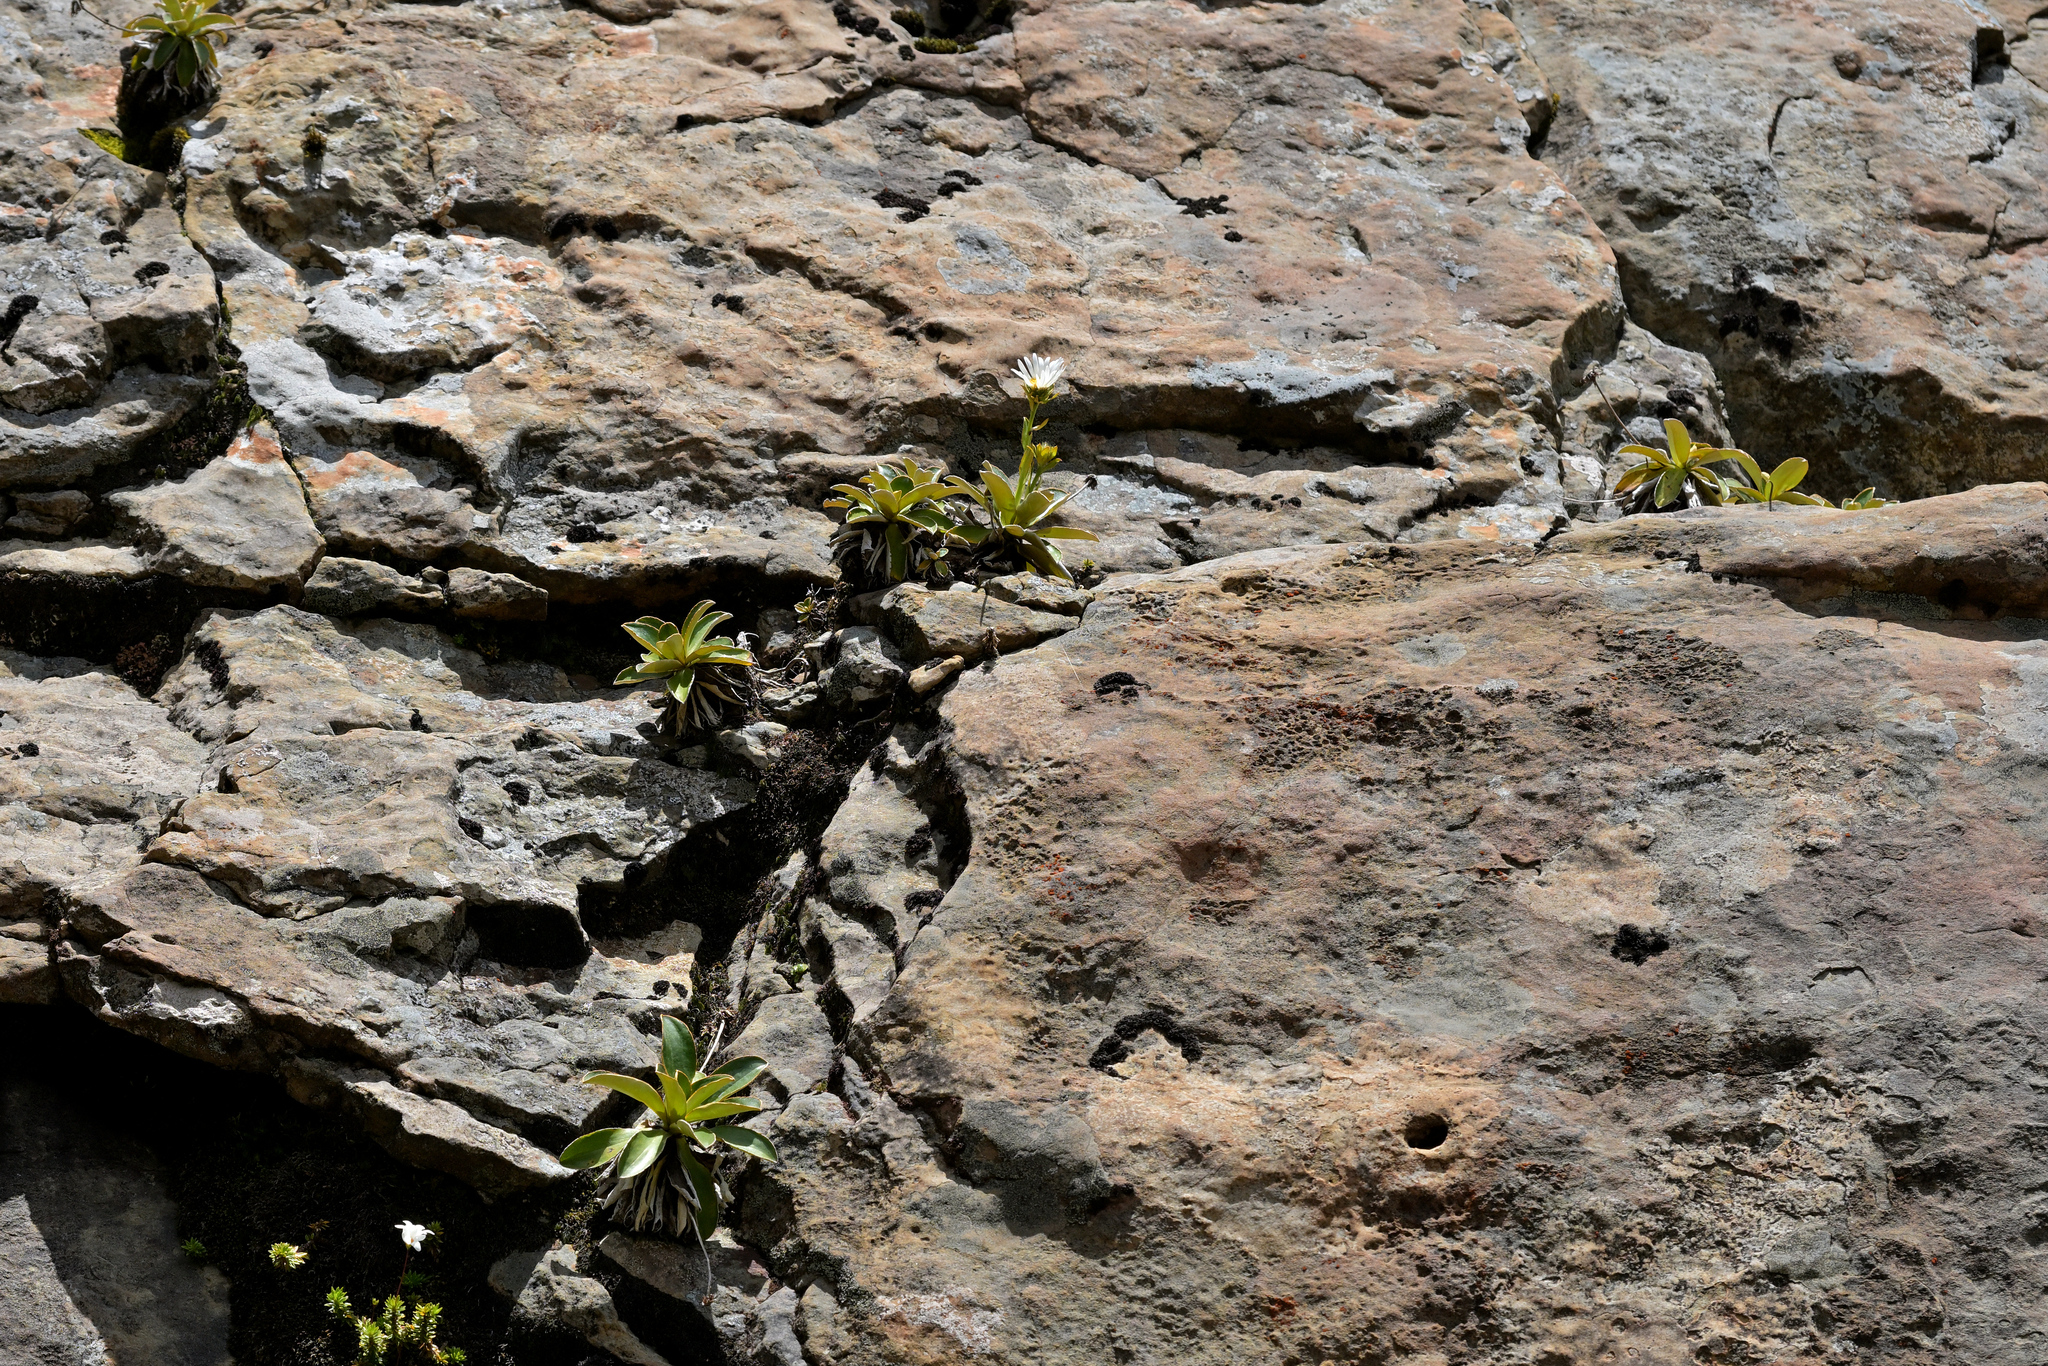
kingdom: Plantae
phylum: Tracheophyta
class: Magnoliopsida
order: Asterales
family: Asteraceae
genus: Celmisia
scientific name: Celmisia dallii
